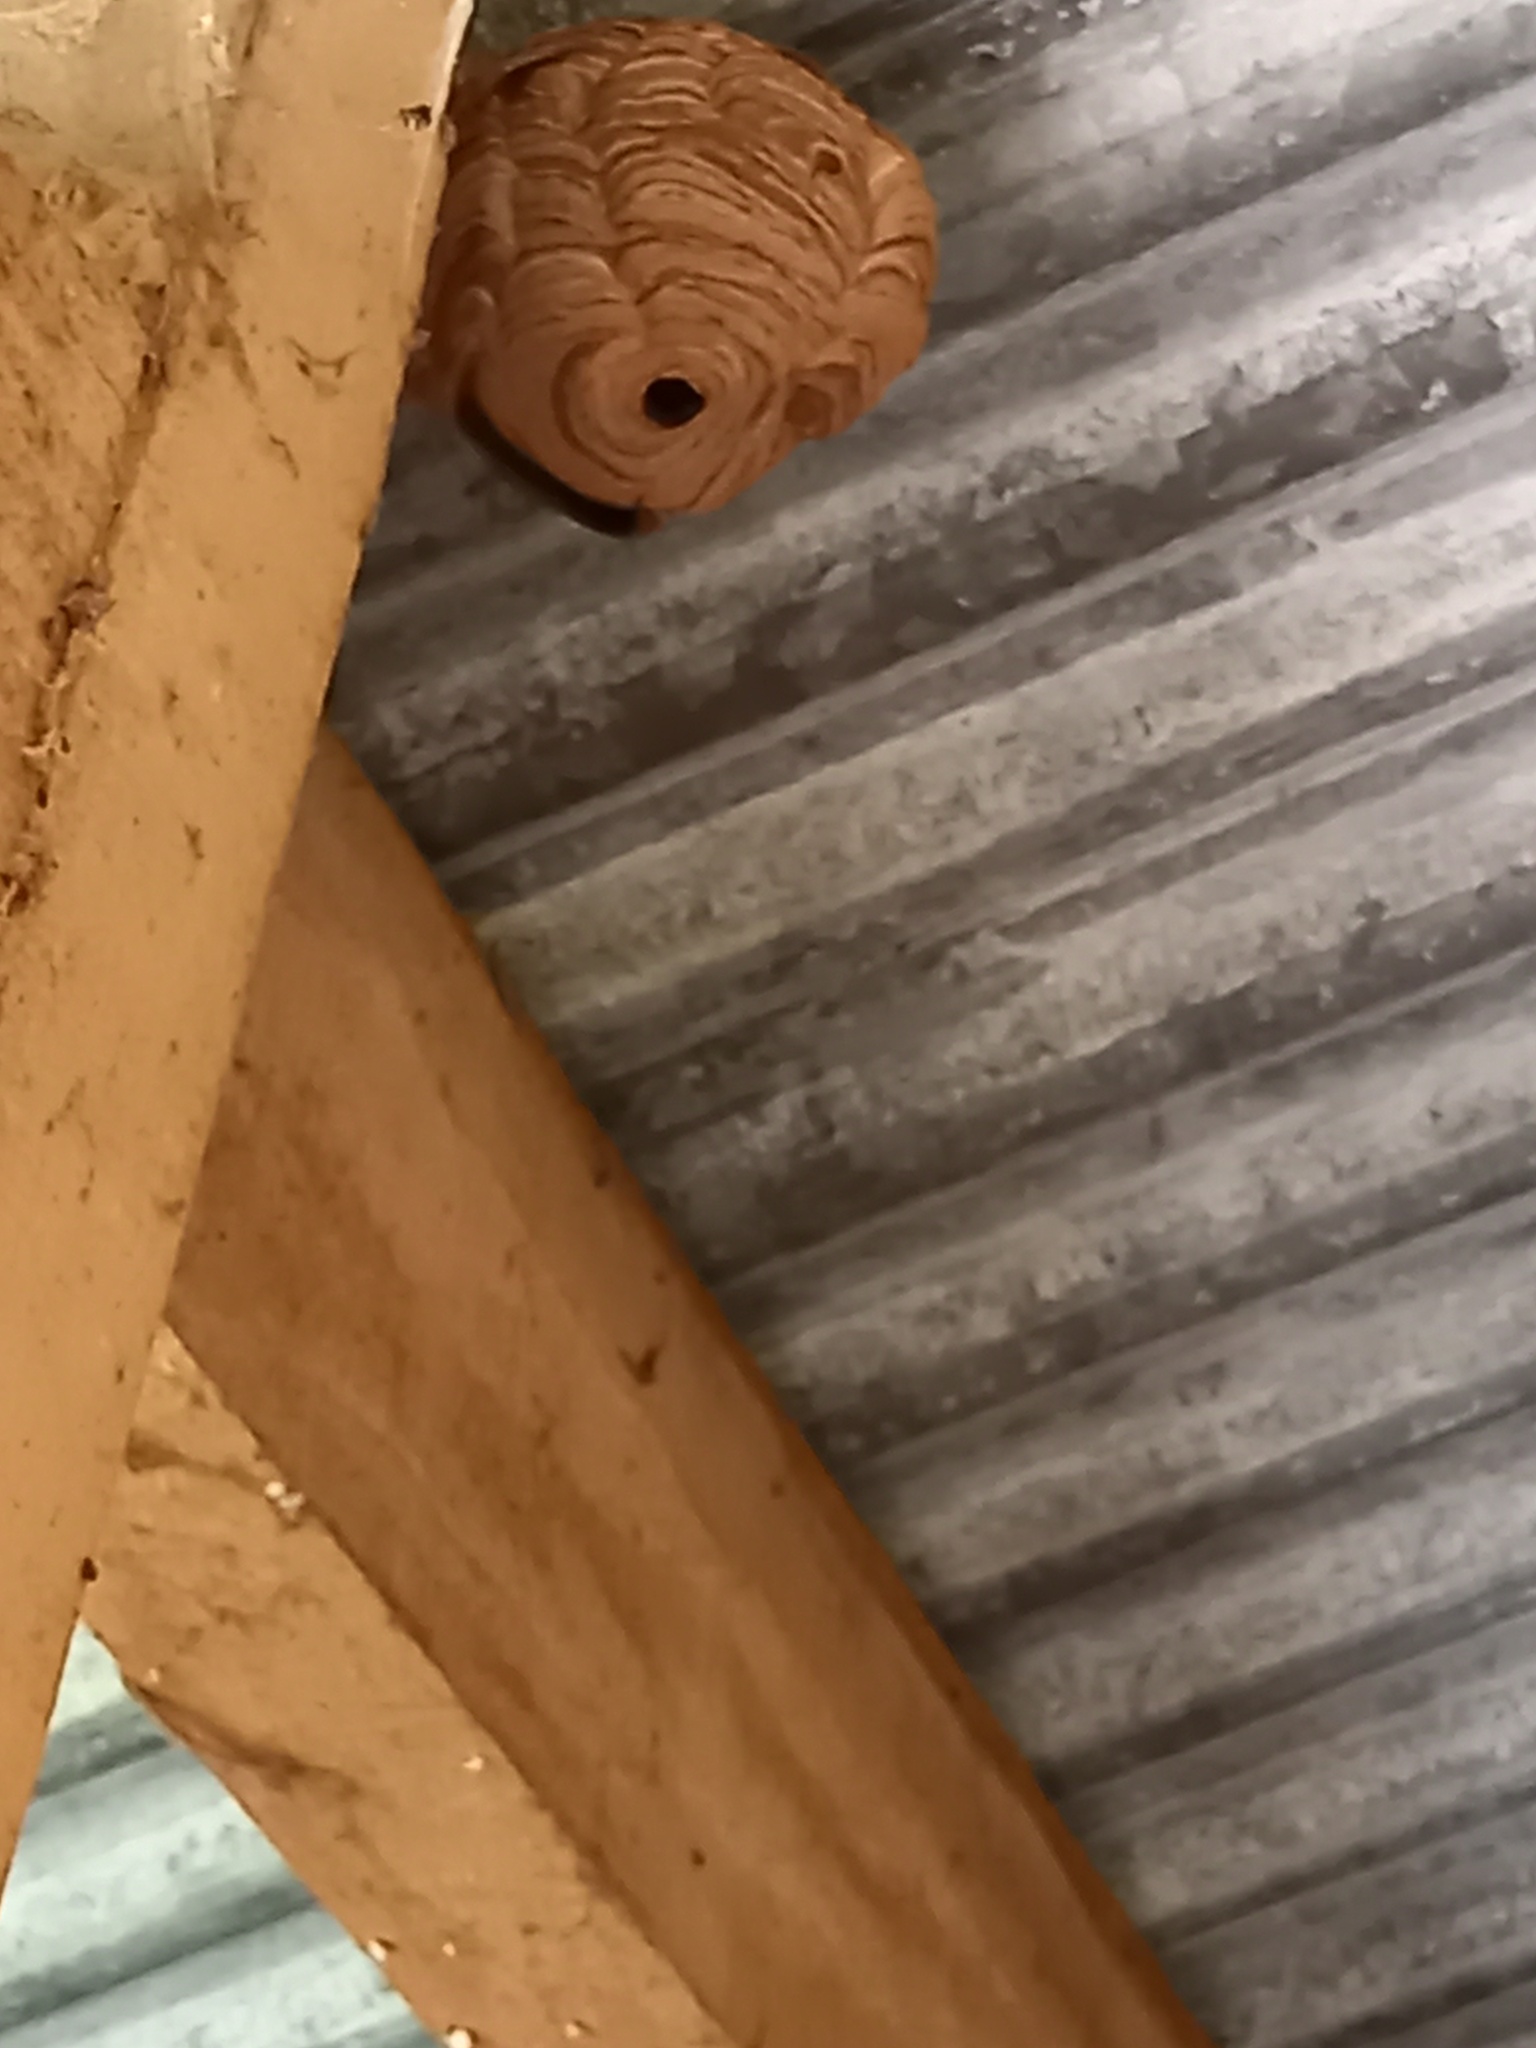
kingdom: Animalia
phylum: Arthropoda
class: Insecta
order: Hymenoptera
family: Vespidae
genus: Vespa
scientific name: Vespa velutina
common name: Asian hornet
